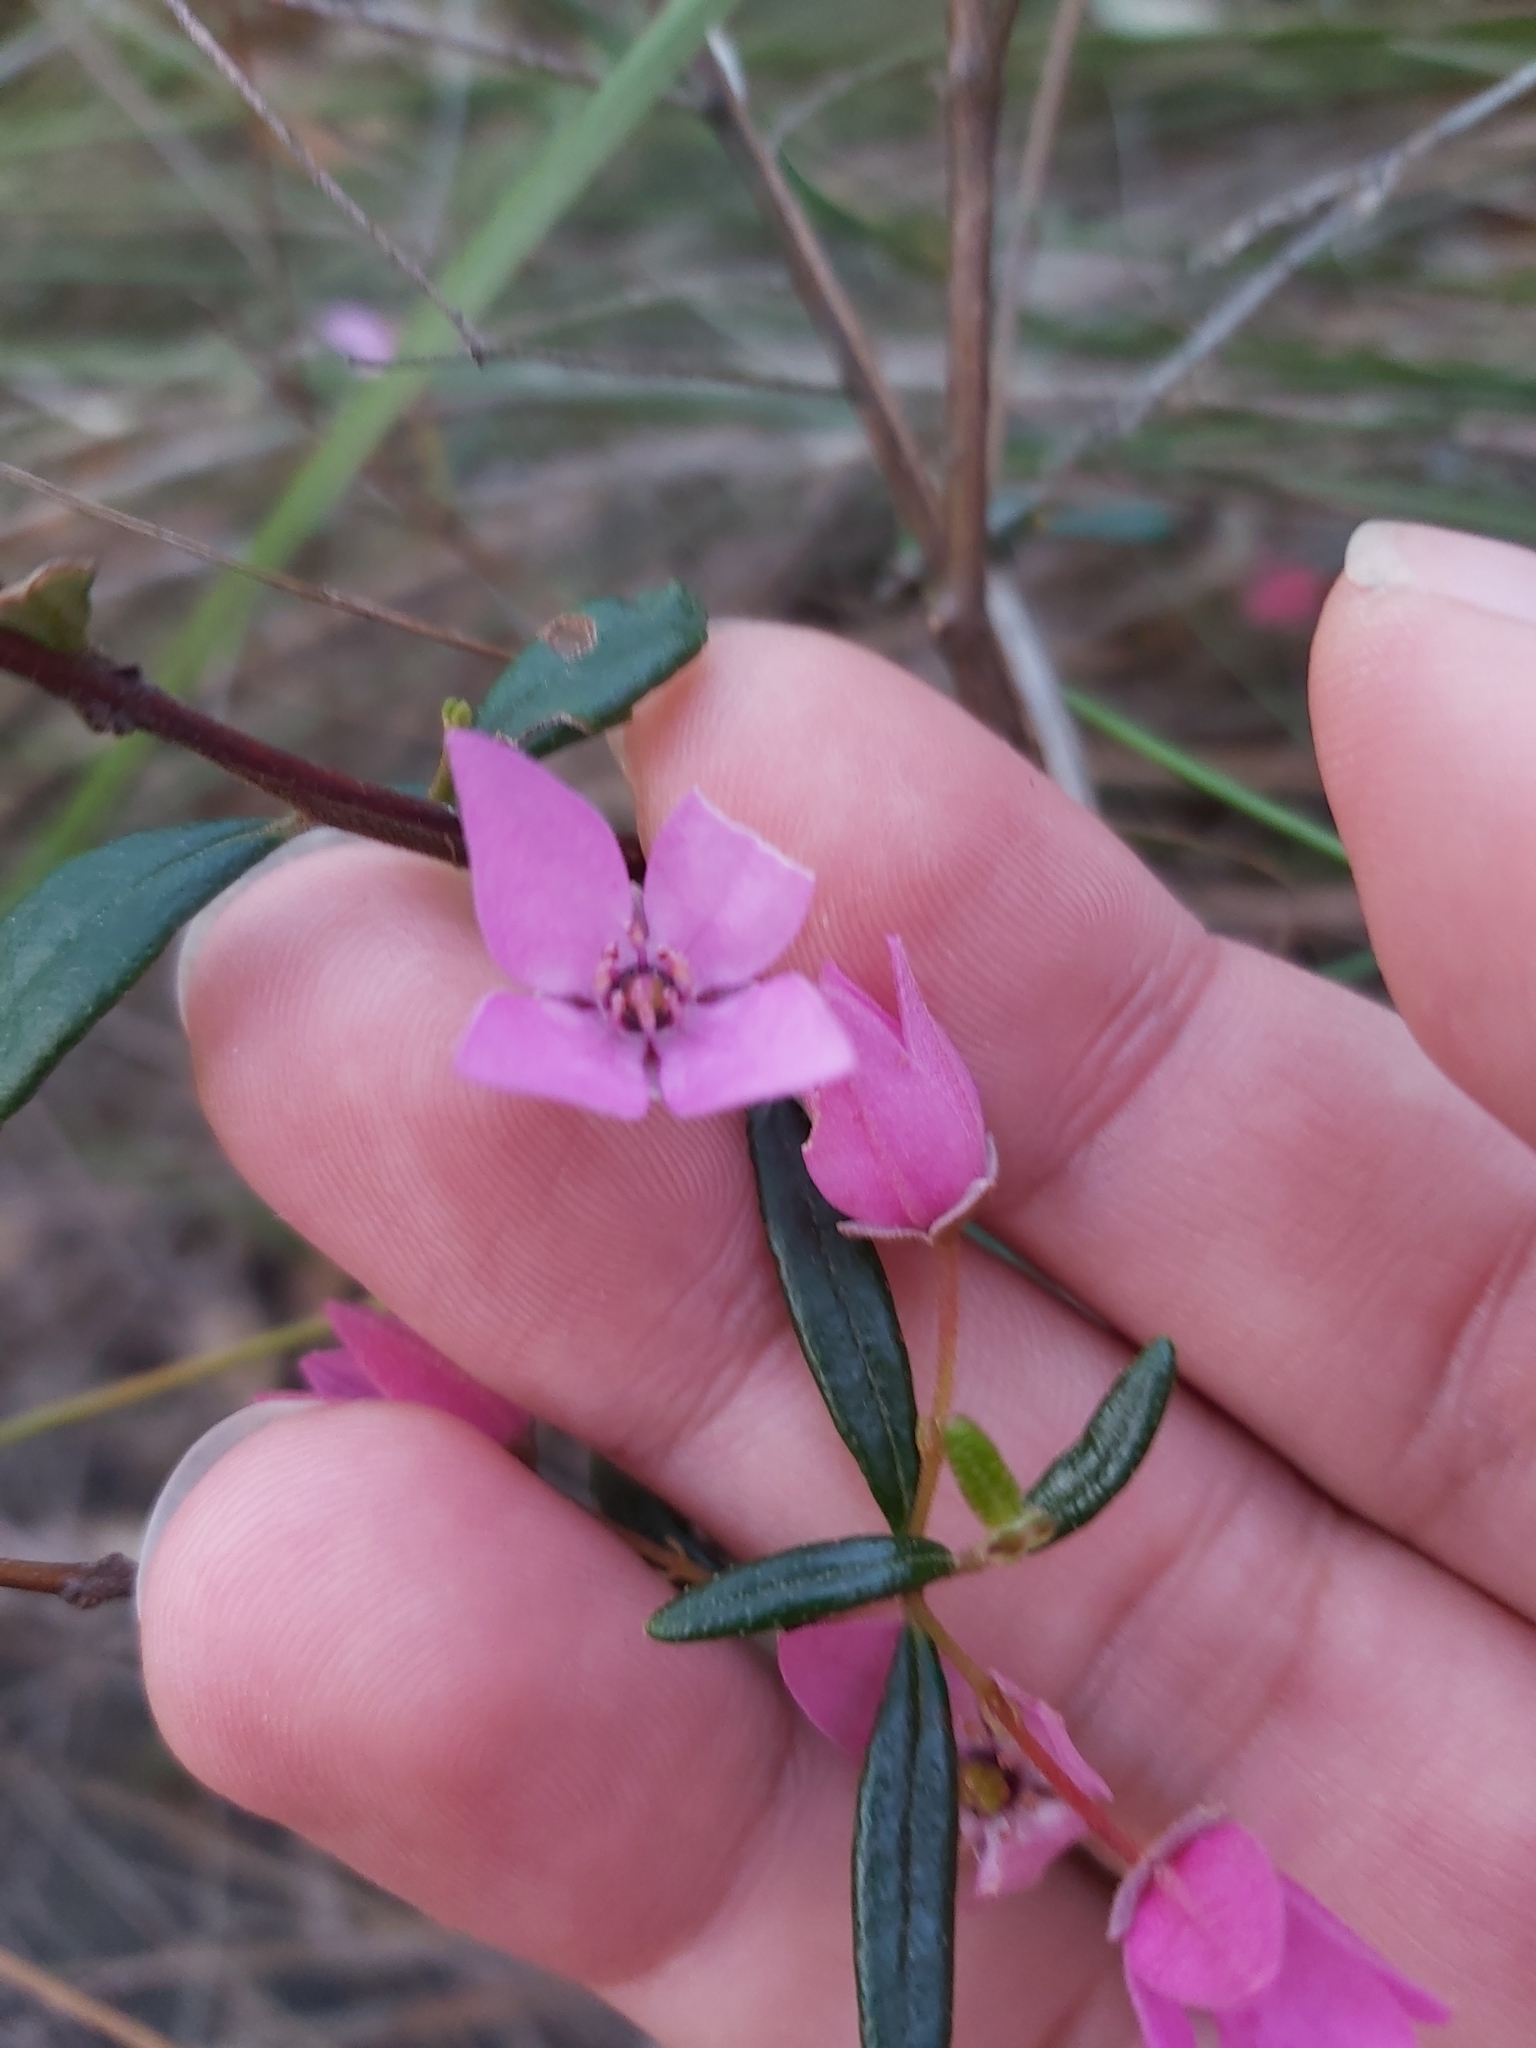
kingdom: Plantae
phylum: Tracheophyta
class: Magnoliopsida
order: Sapindales
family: Rutaceae
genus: Boronia
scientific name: Boronia ledifolia
